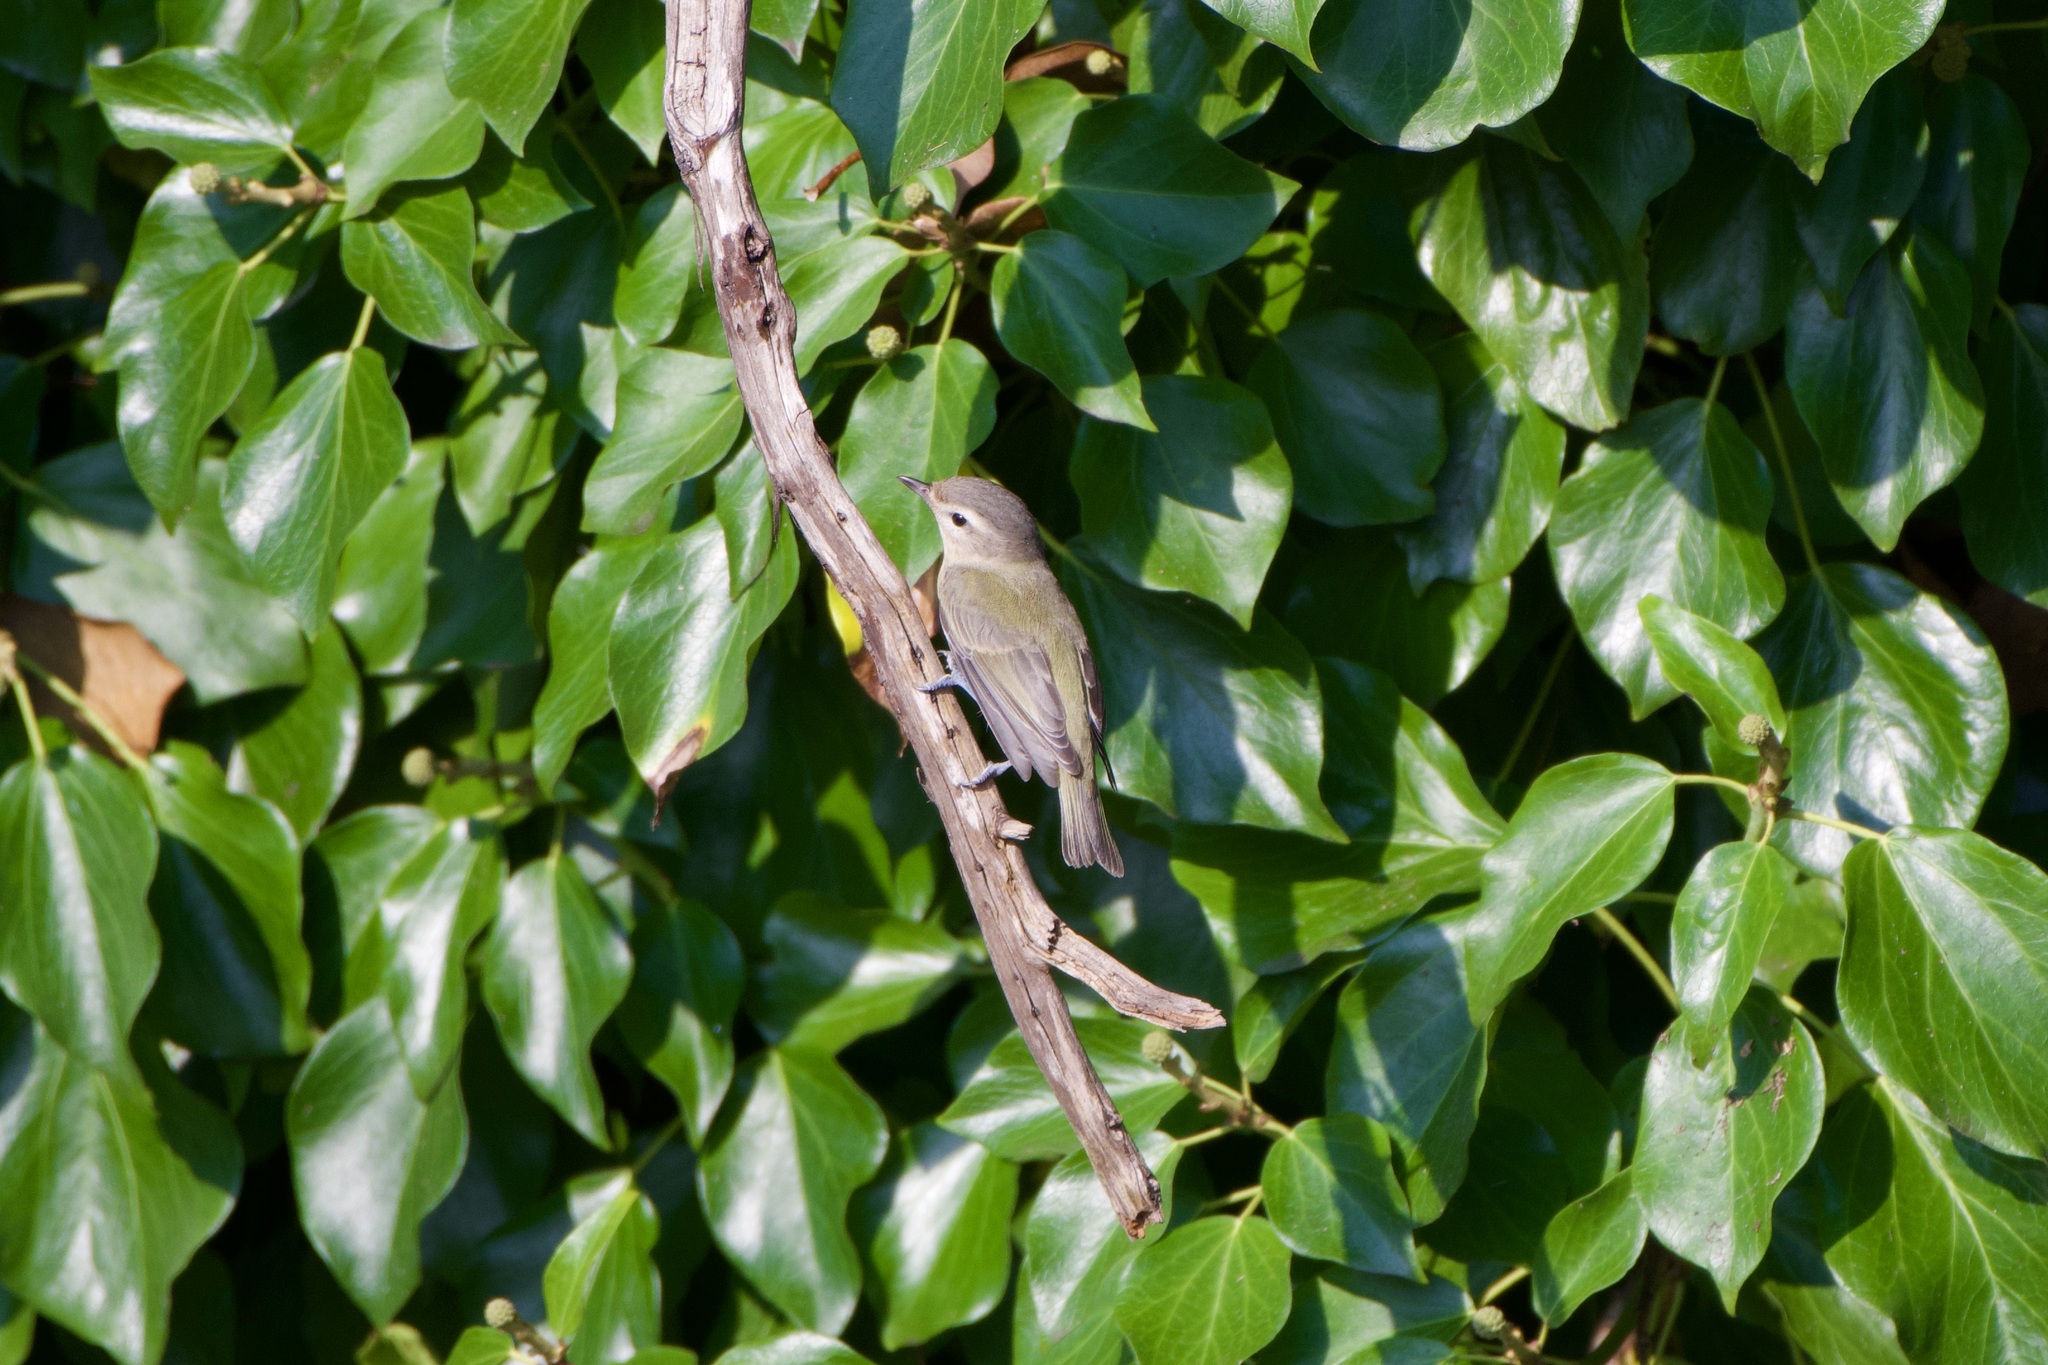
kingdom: Animalia
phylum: Chordata
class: Aves
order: Passeriformes
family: Vireonidae
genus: Vireo
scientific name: Vireo gilvus
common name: Warbling vireo
